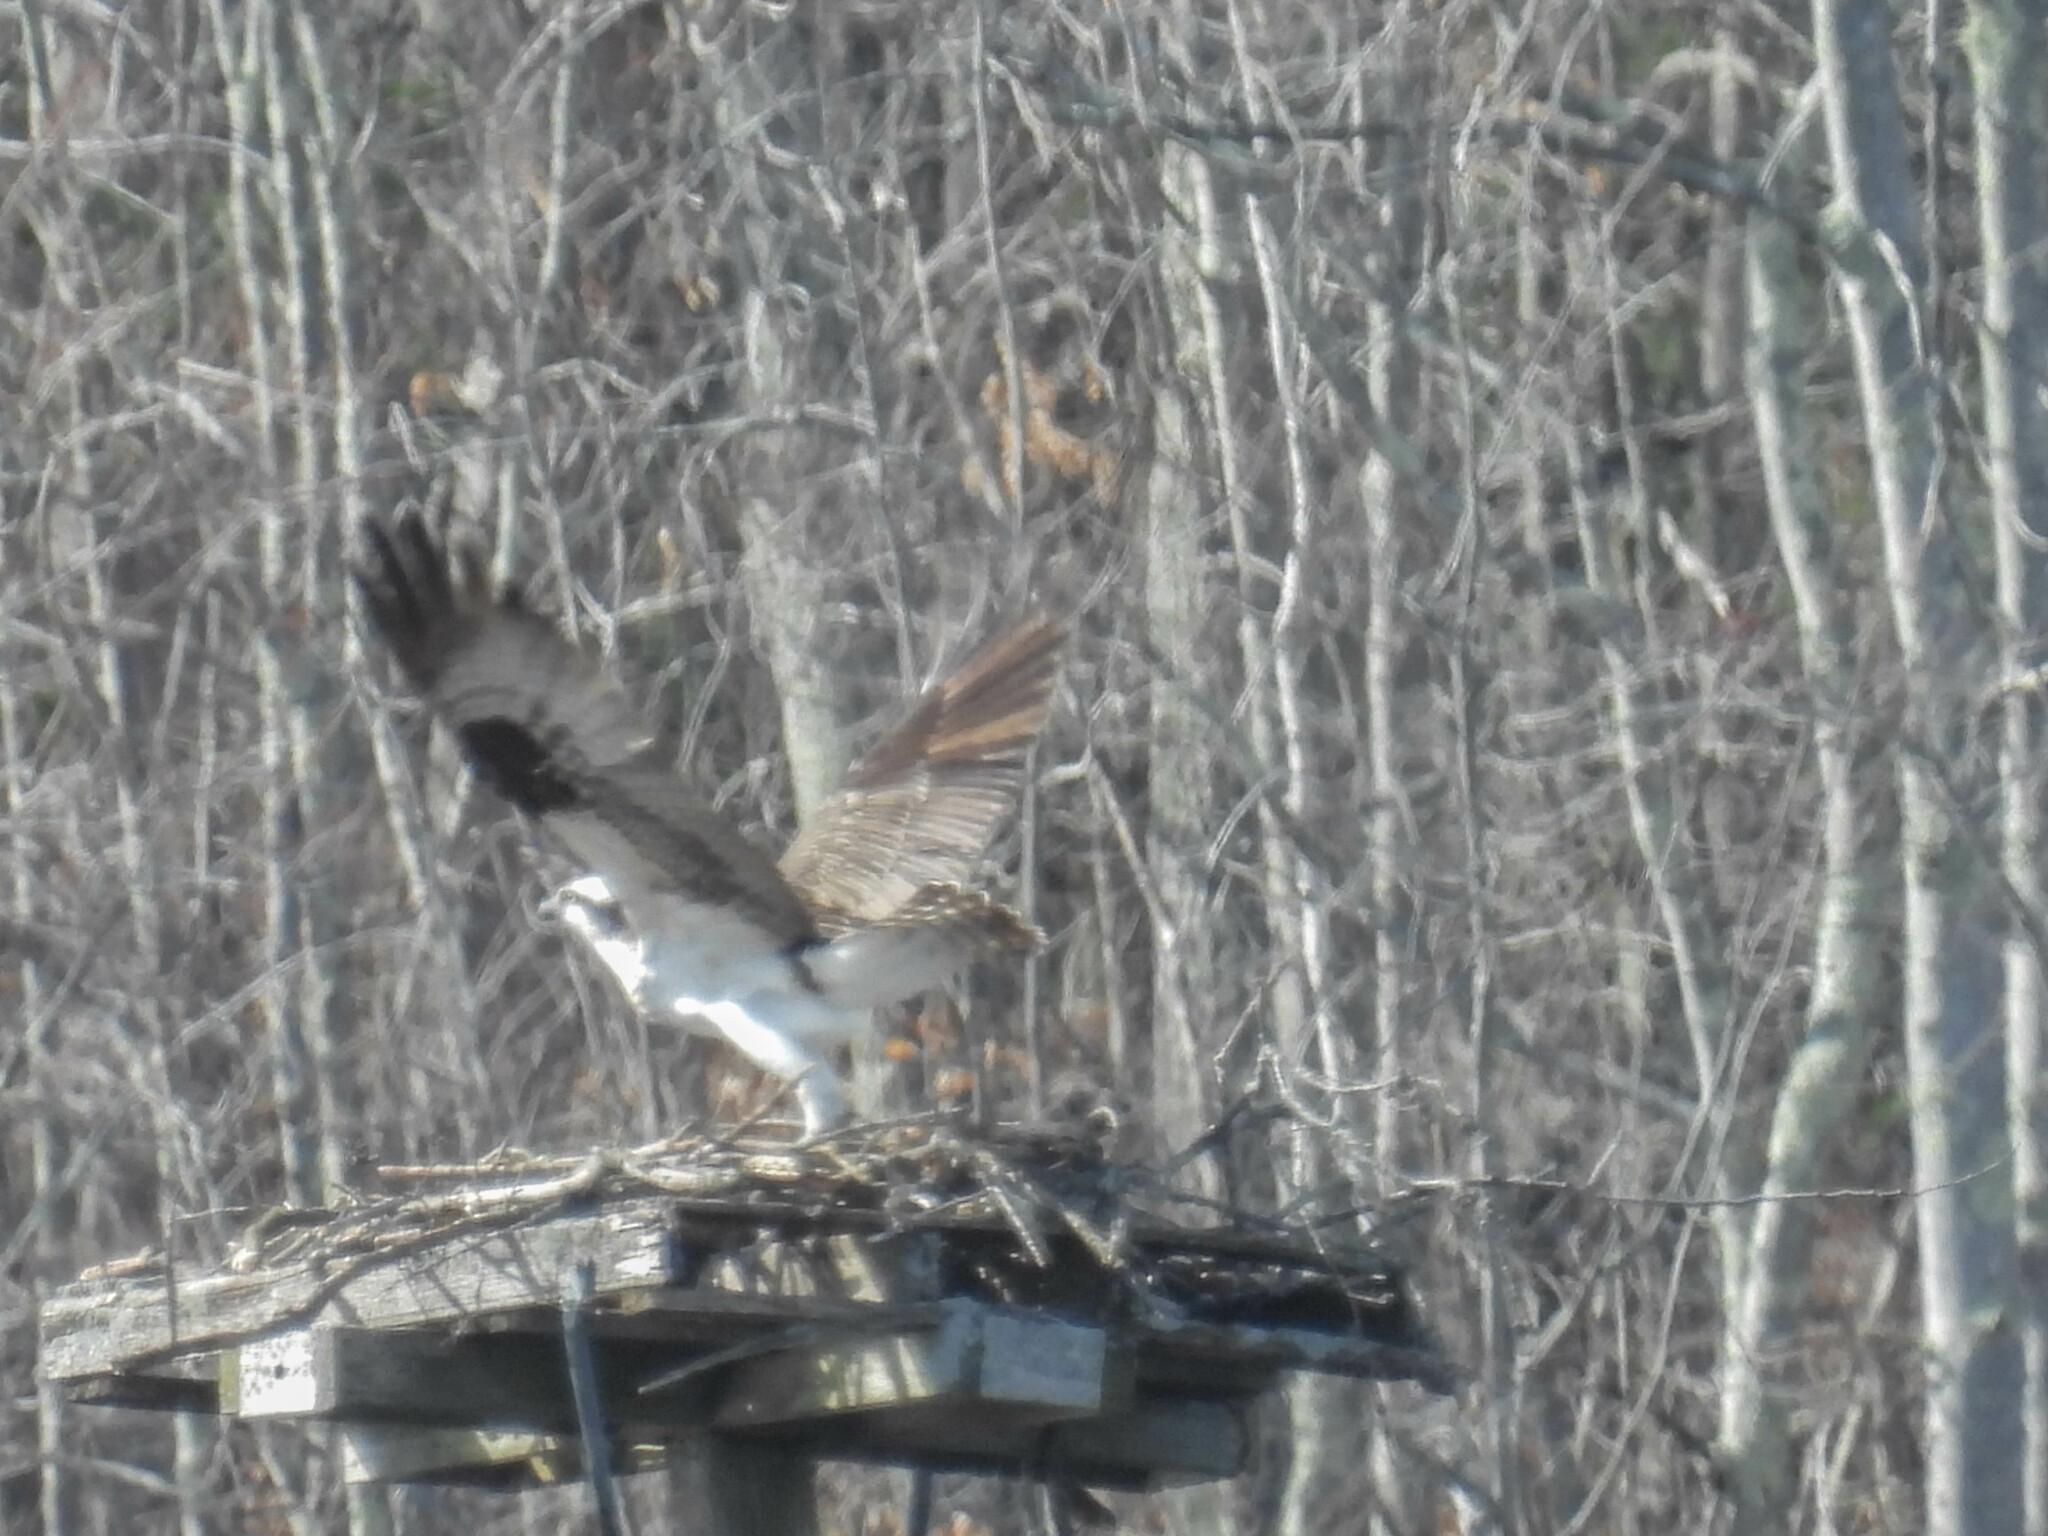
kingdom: Animalia
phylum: Chordata
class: Aves
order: Accipitriformes
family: Pandionidae
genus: Pandion
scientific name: Pandion haliaetus
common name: Osprey
